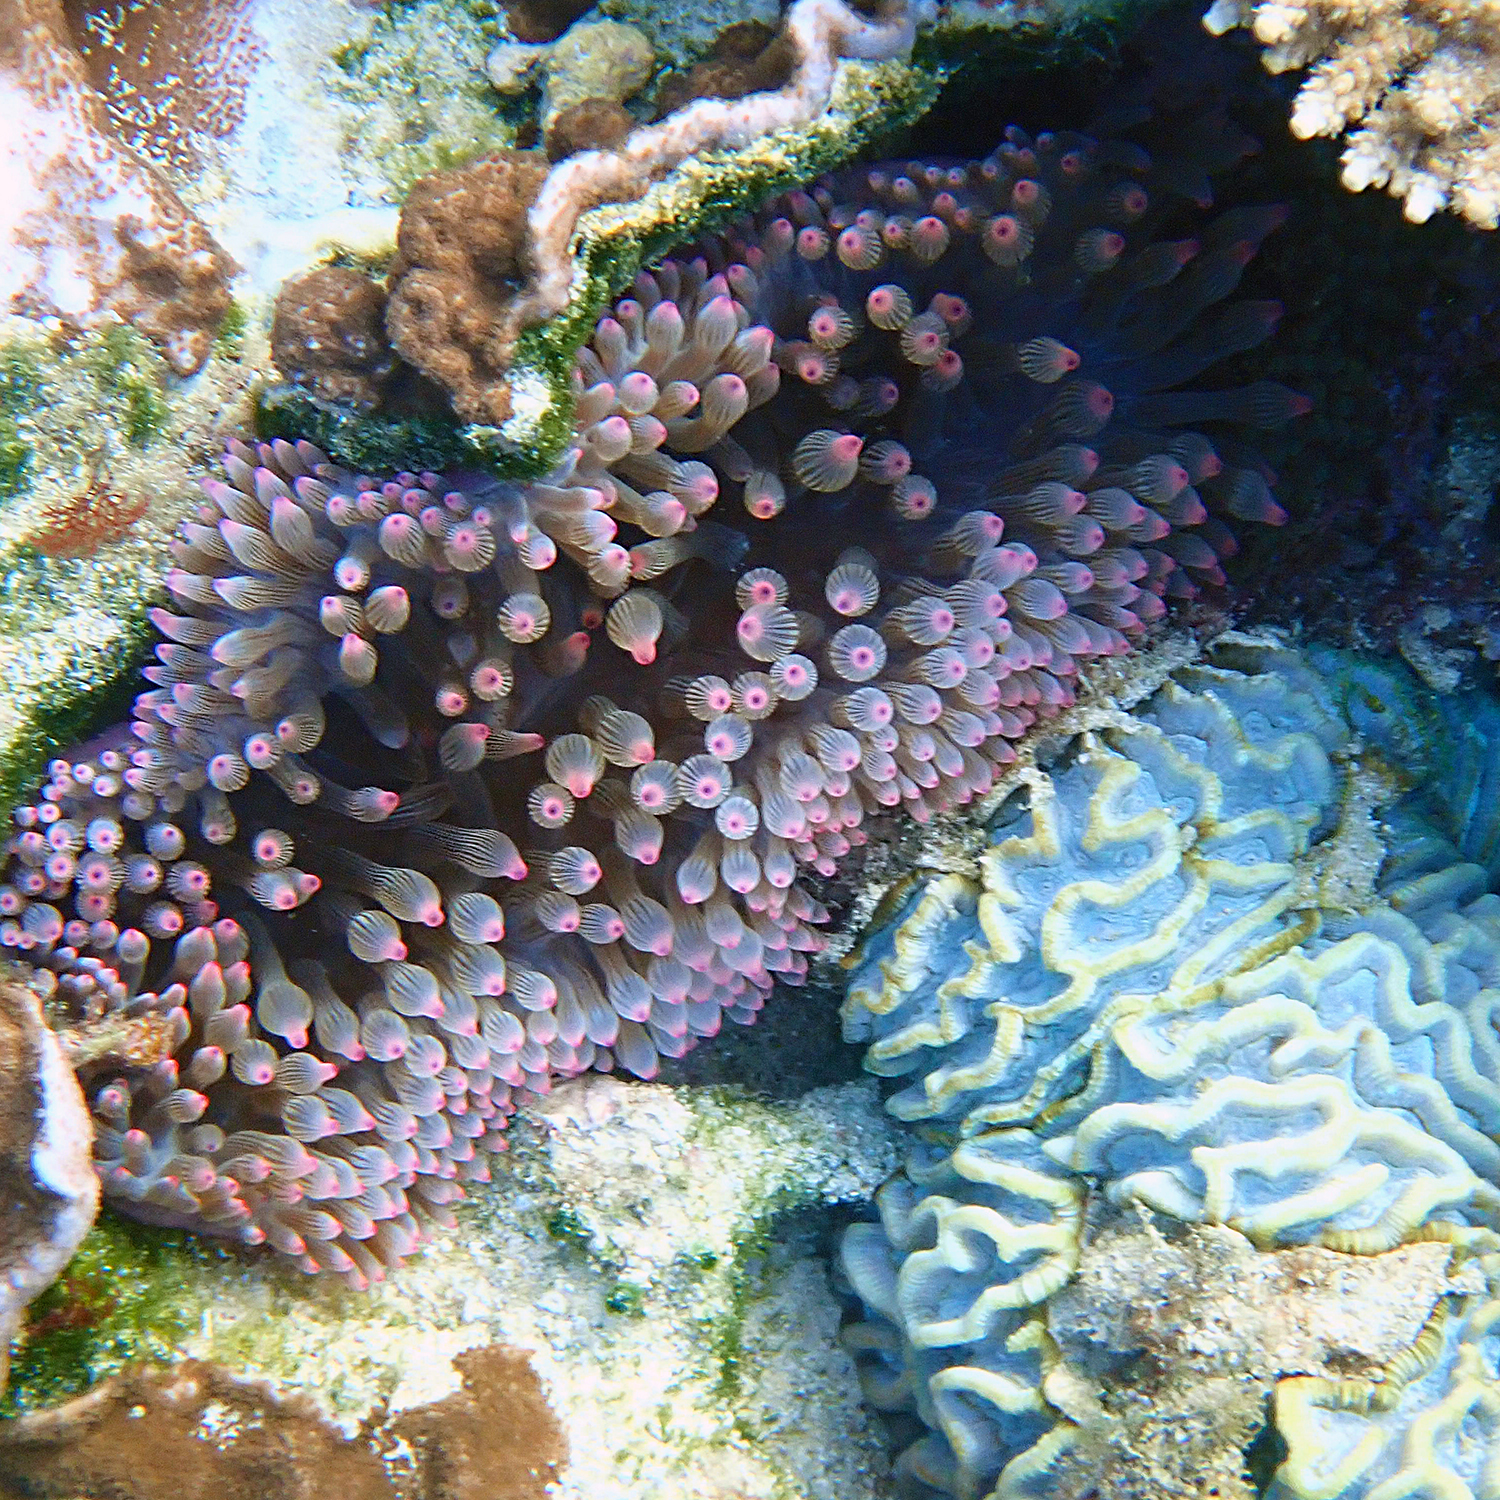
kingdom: Animalia
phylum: Cnidaria
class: Anthozoa
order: Actiniaria
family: Actiniidae
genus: Entacmaea
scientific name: Entacmaea quadricolor
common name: Bulb tentacle sea anemone
